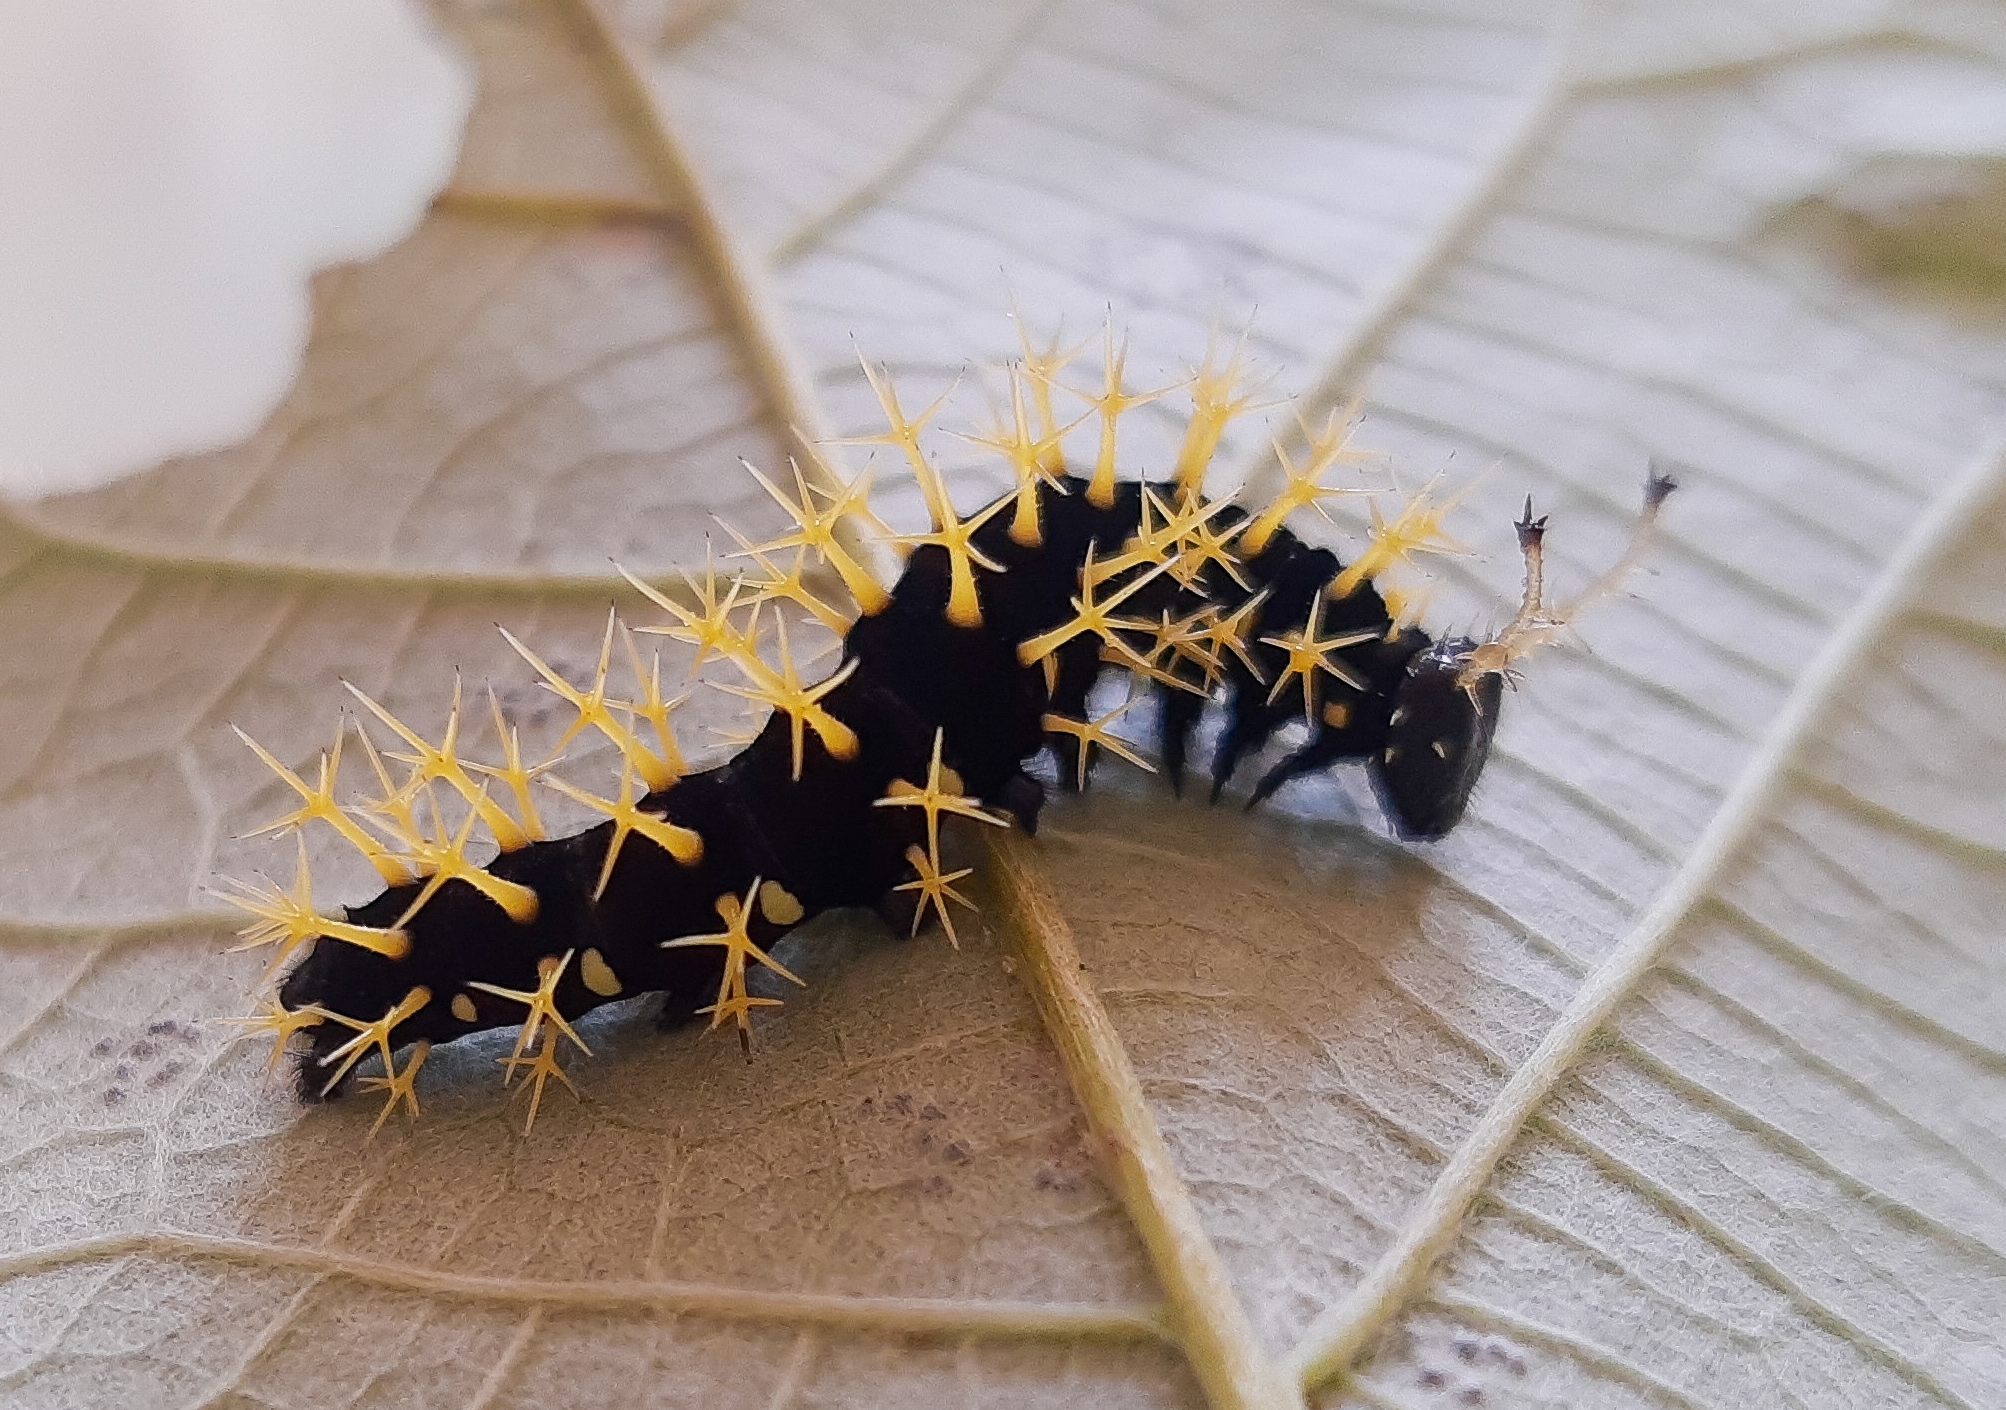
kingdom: Animalia
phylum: Arthropoda
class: Insecta
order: Lepidoptera
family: Nymphalidae
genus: Colobura
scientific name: Colobura dirce
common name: Dirce beauty
